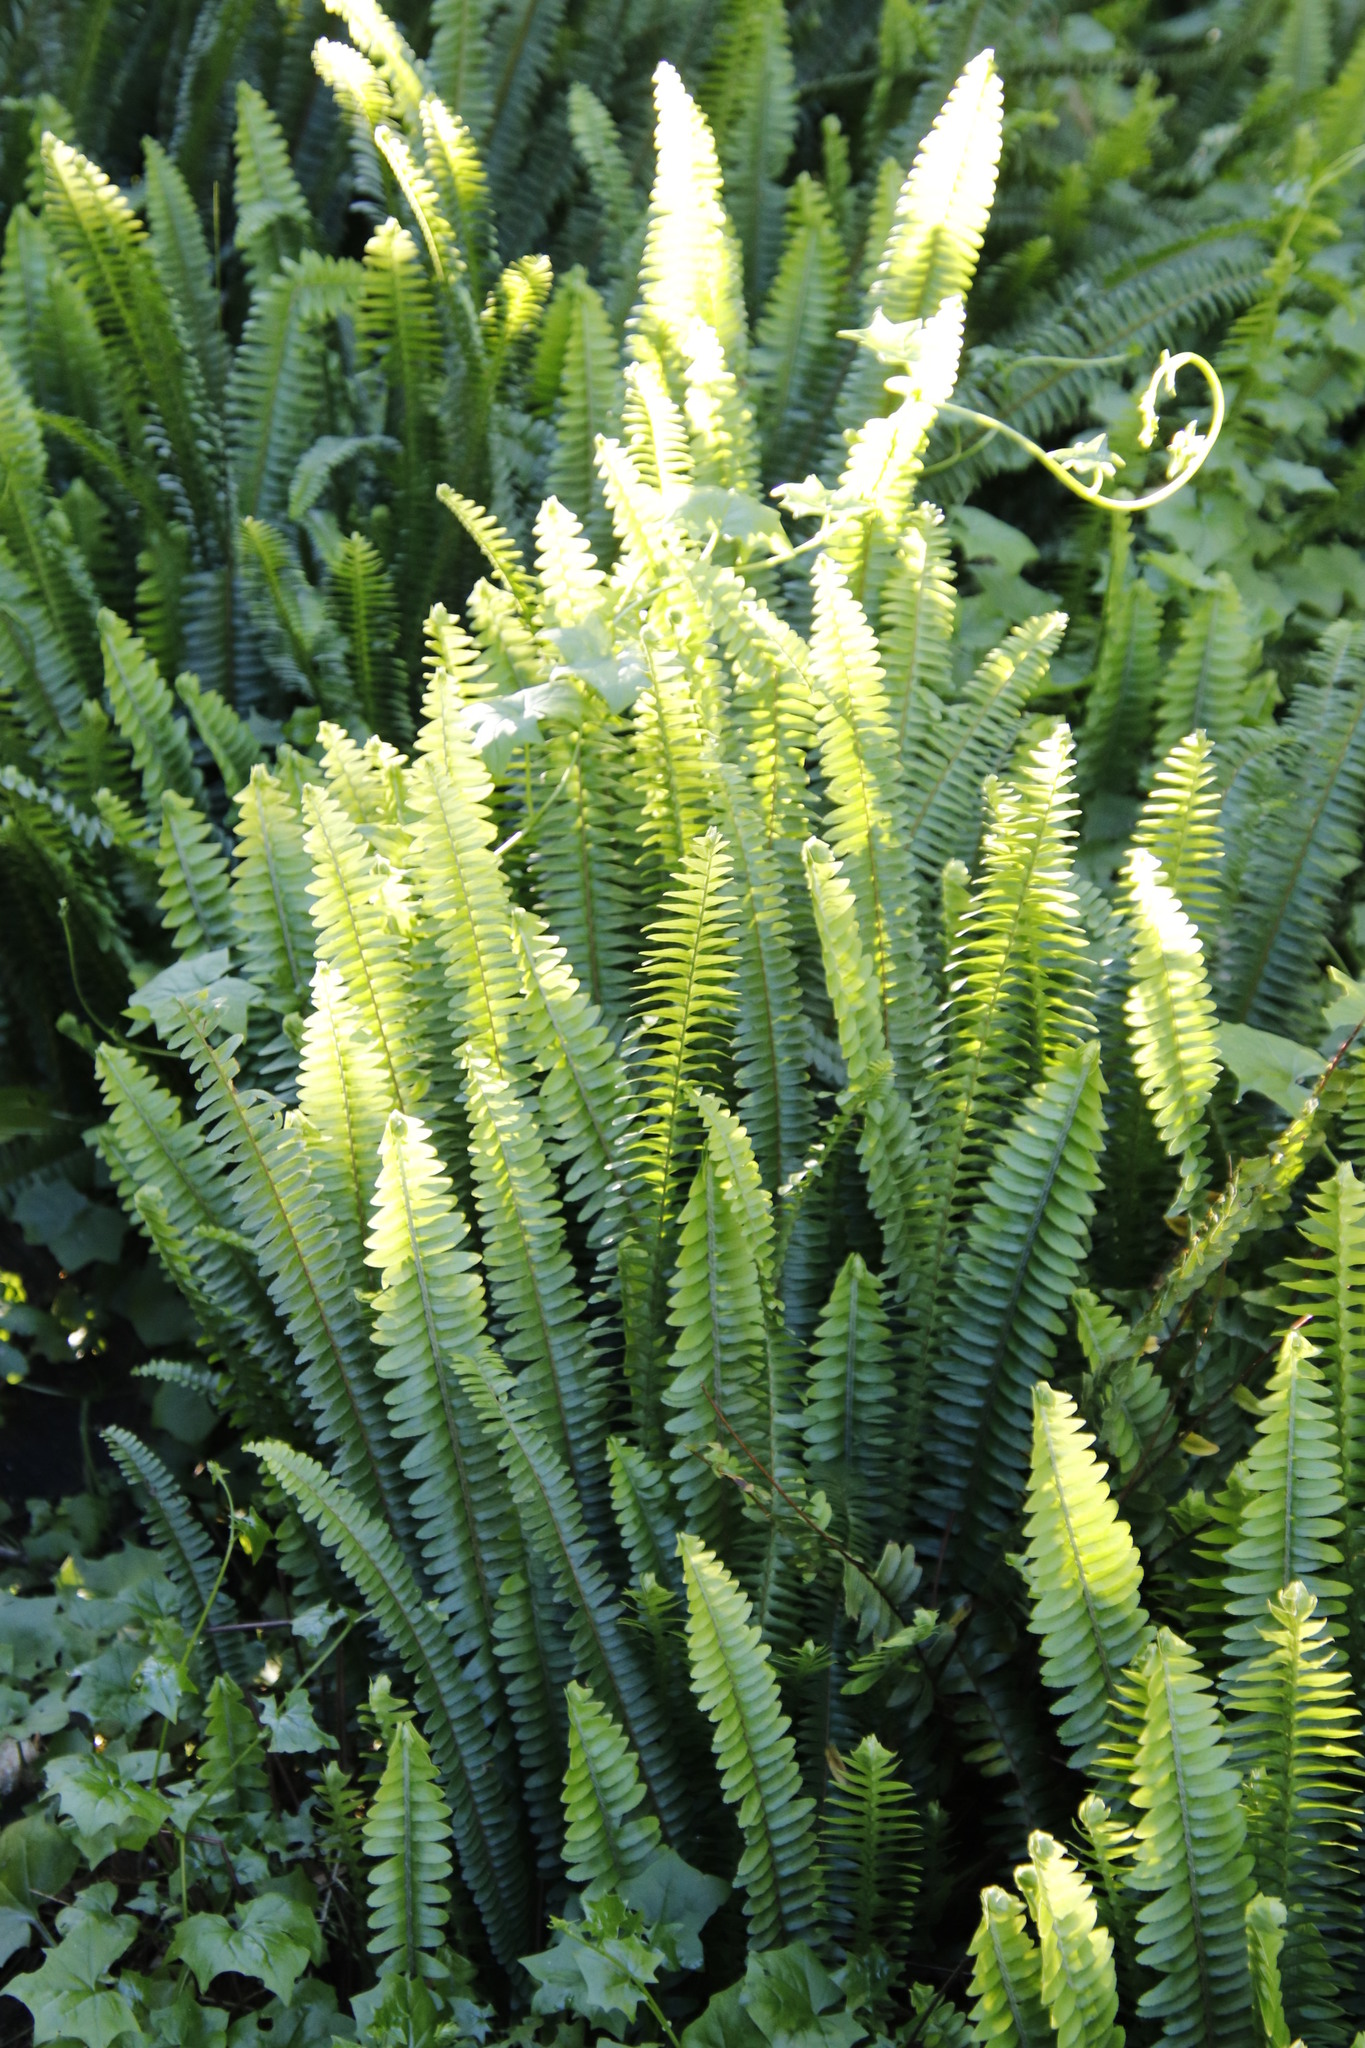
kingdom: Plantae
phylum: Tracheophyta
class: Polypodiopsida
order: Polypodiales
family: Nephrolepidaceae
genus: Nephrolepis
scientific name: Nephrolepis cordifolia
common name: Narrow swordfern
